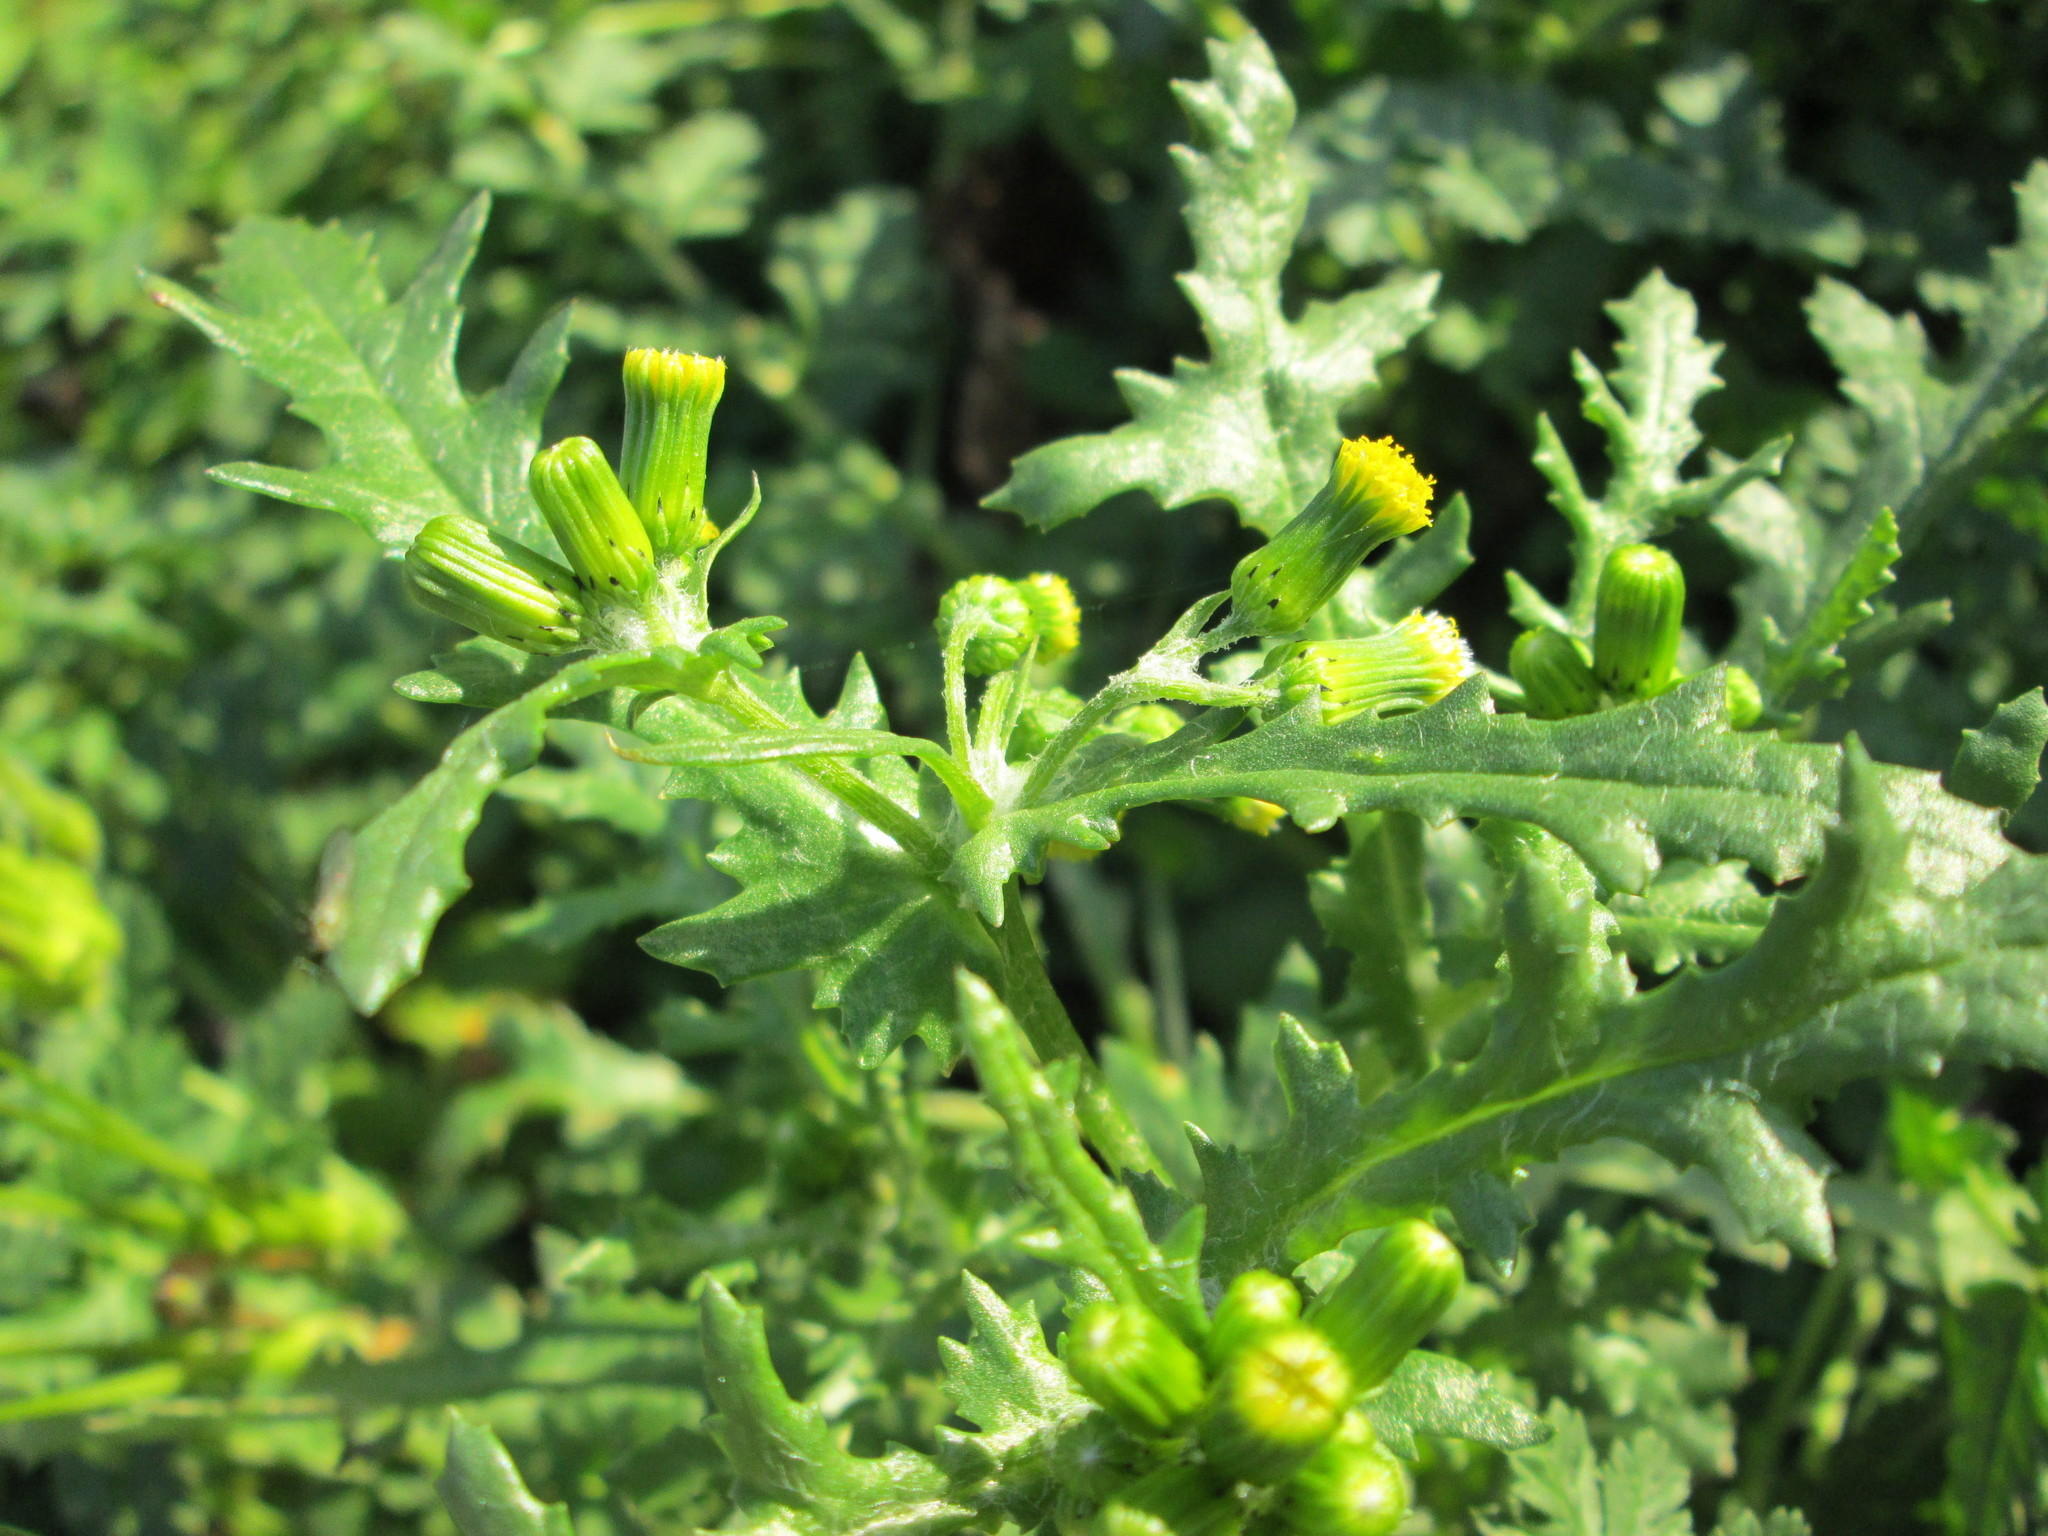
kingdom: Plantae
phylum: Tracheophyta
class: Magnoliopsida
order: Asterales
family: Asteraceae
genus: Senecio
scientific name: Senecio vulgaris
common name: Old-man-in-the-spring
